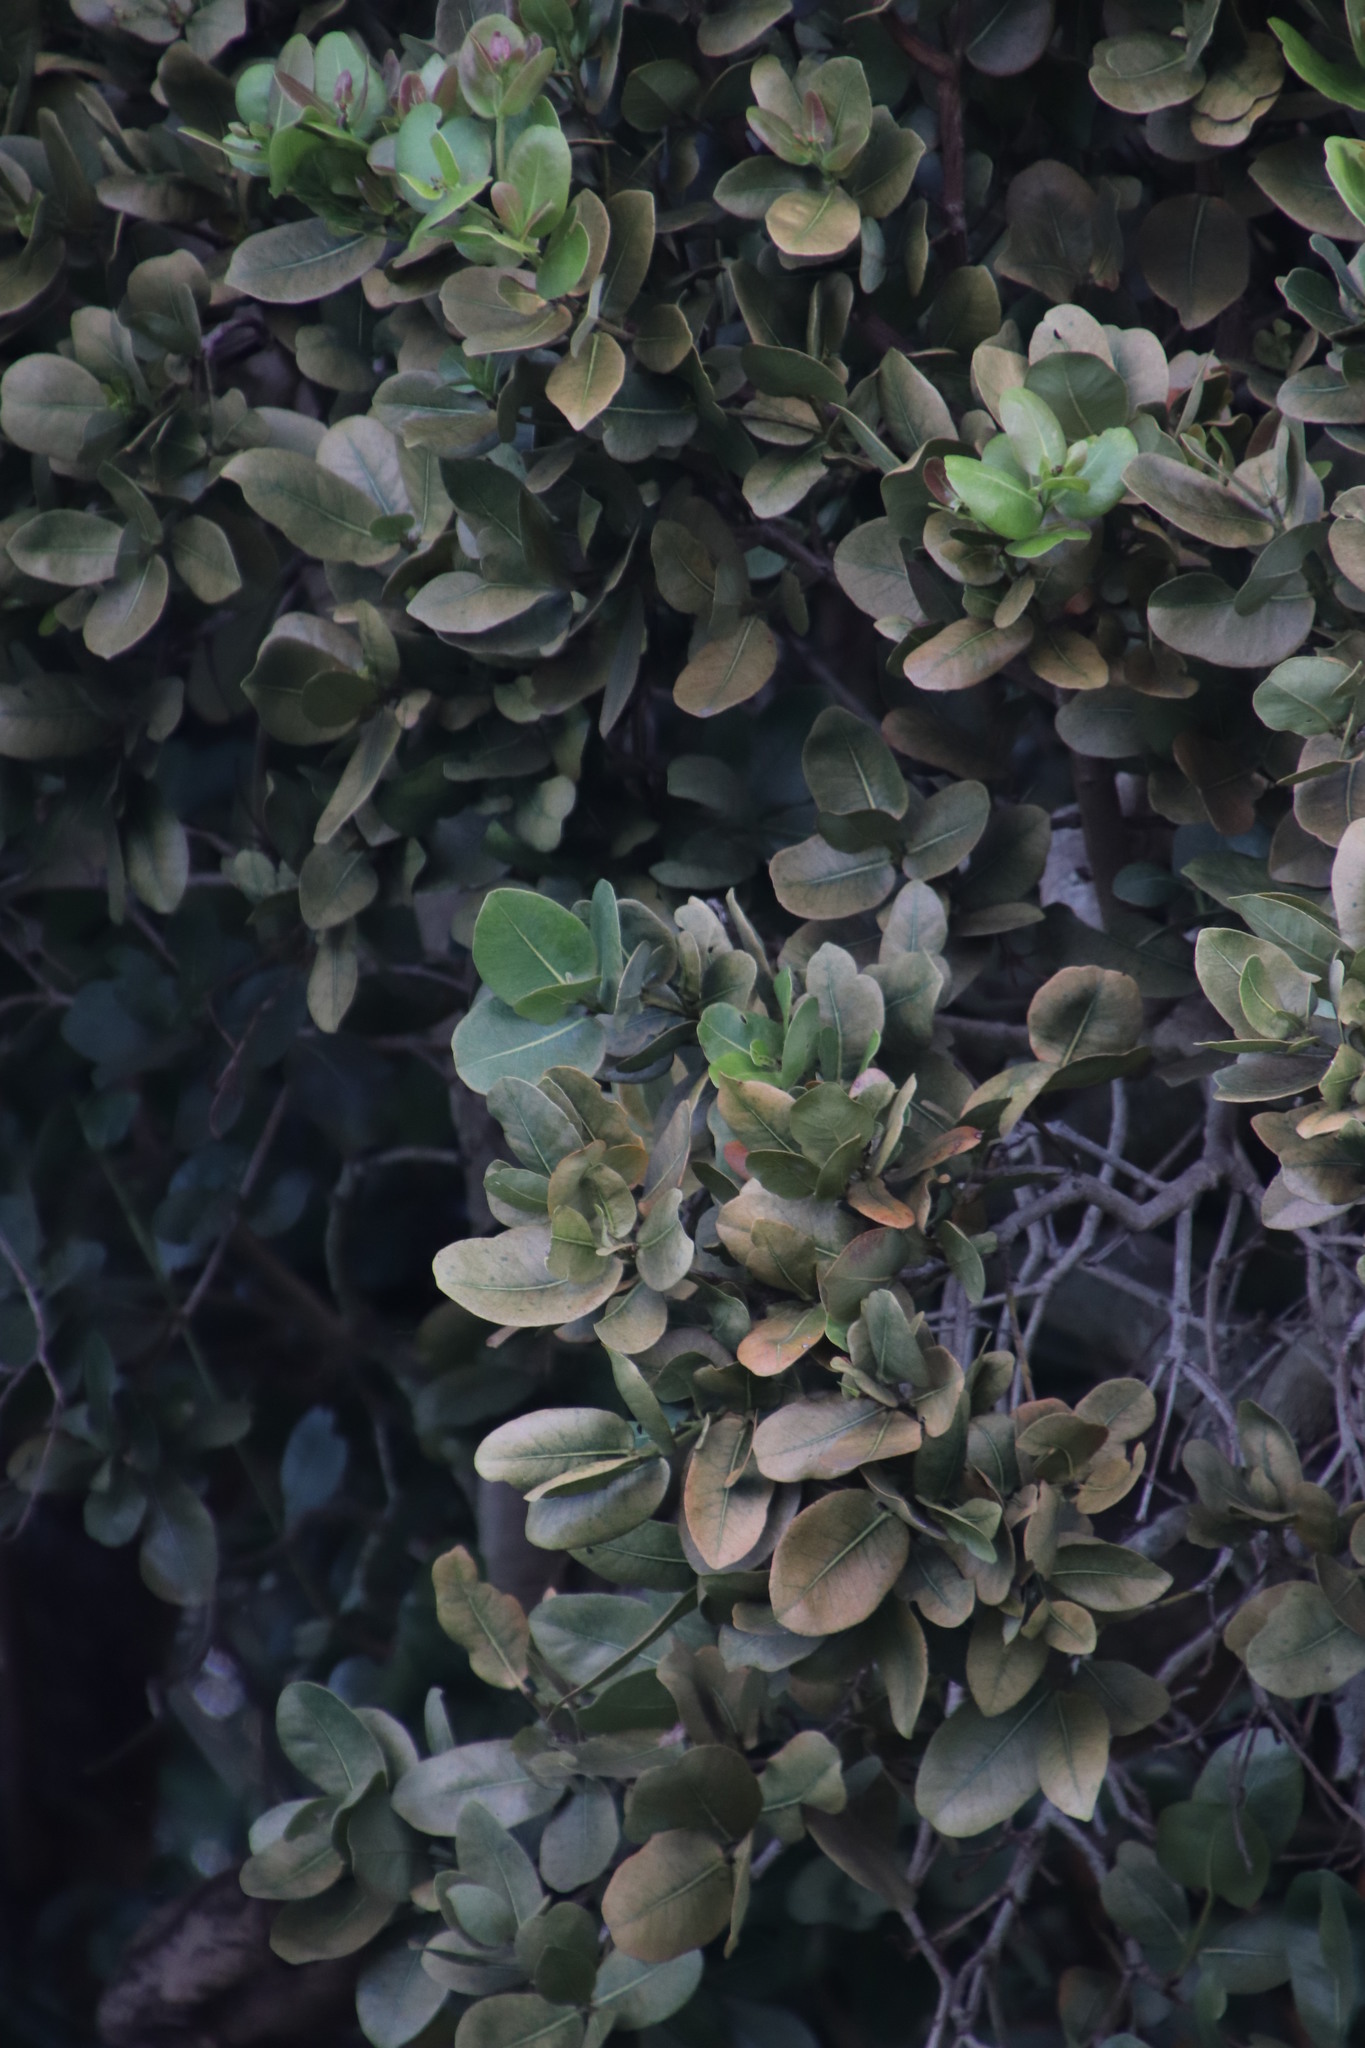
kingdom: Plantae
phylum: Tracheophyta
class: Magnoliopsida
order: Myrtales
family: Myrtaceae
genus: Syzygium
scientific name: Syzygium cordatum
